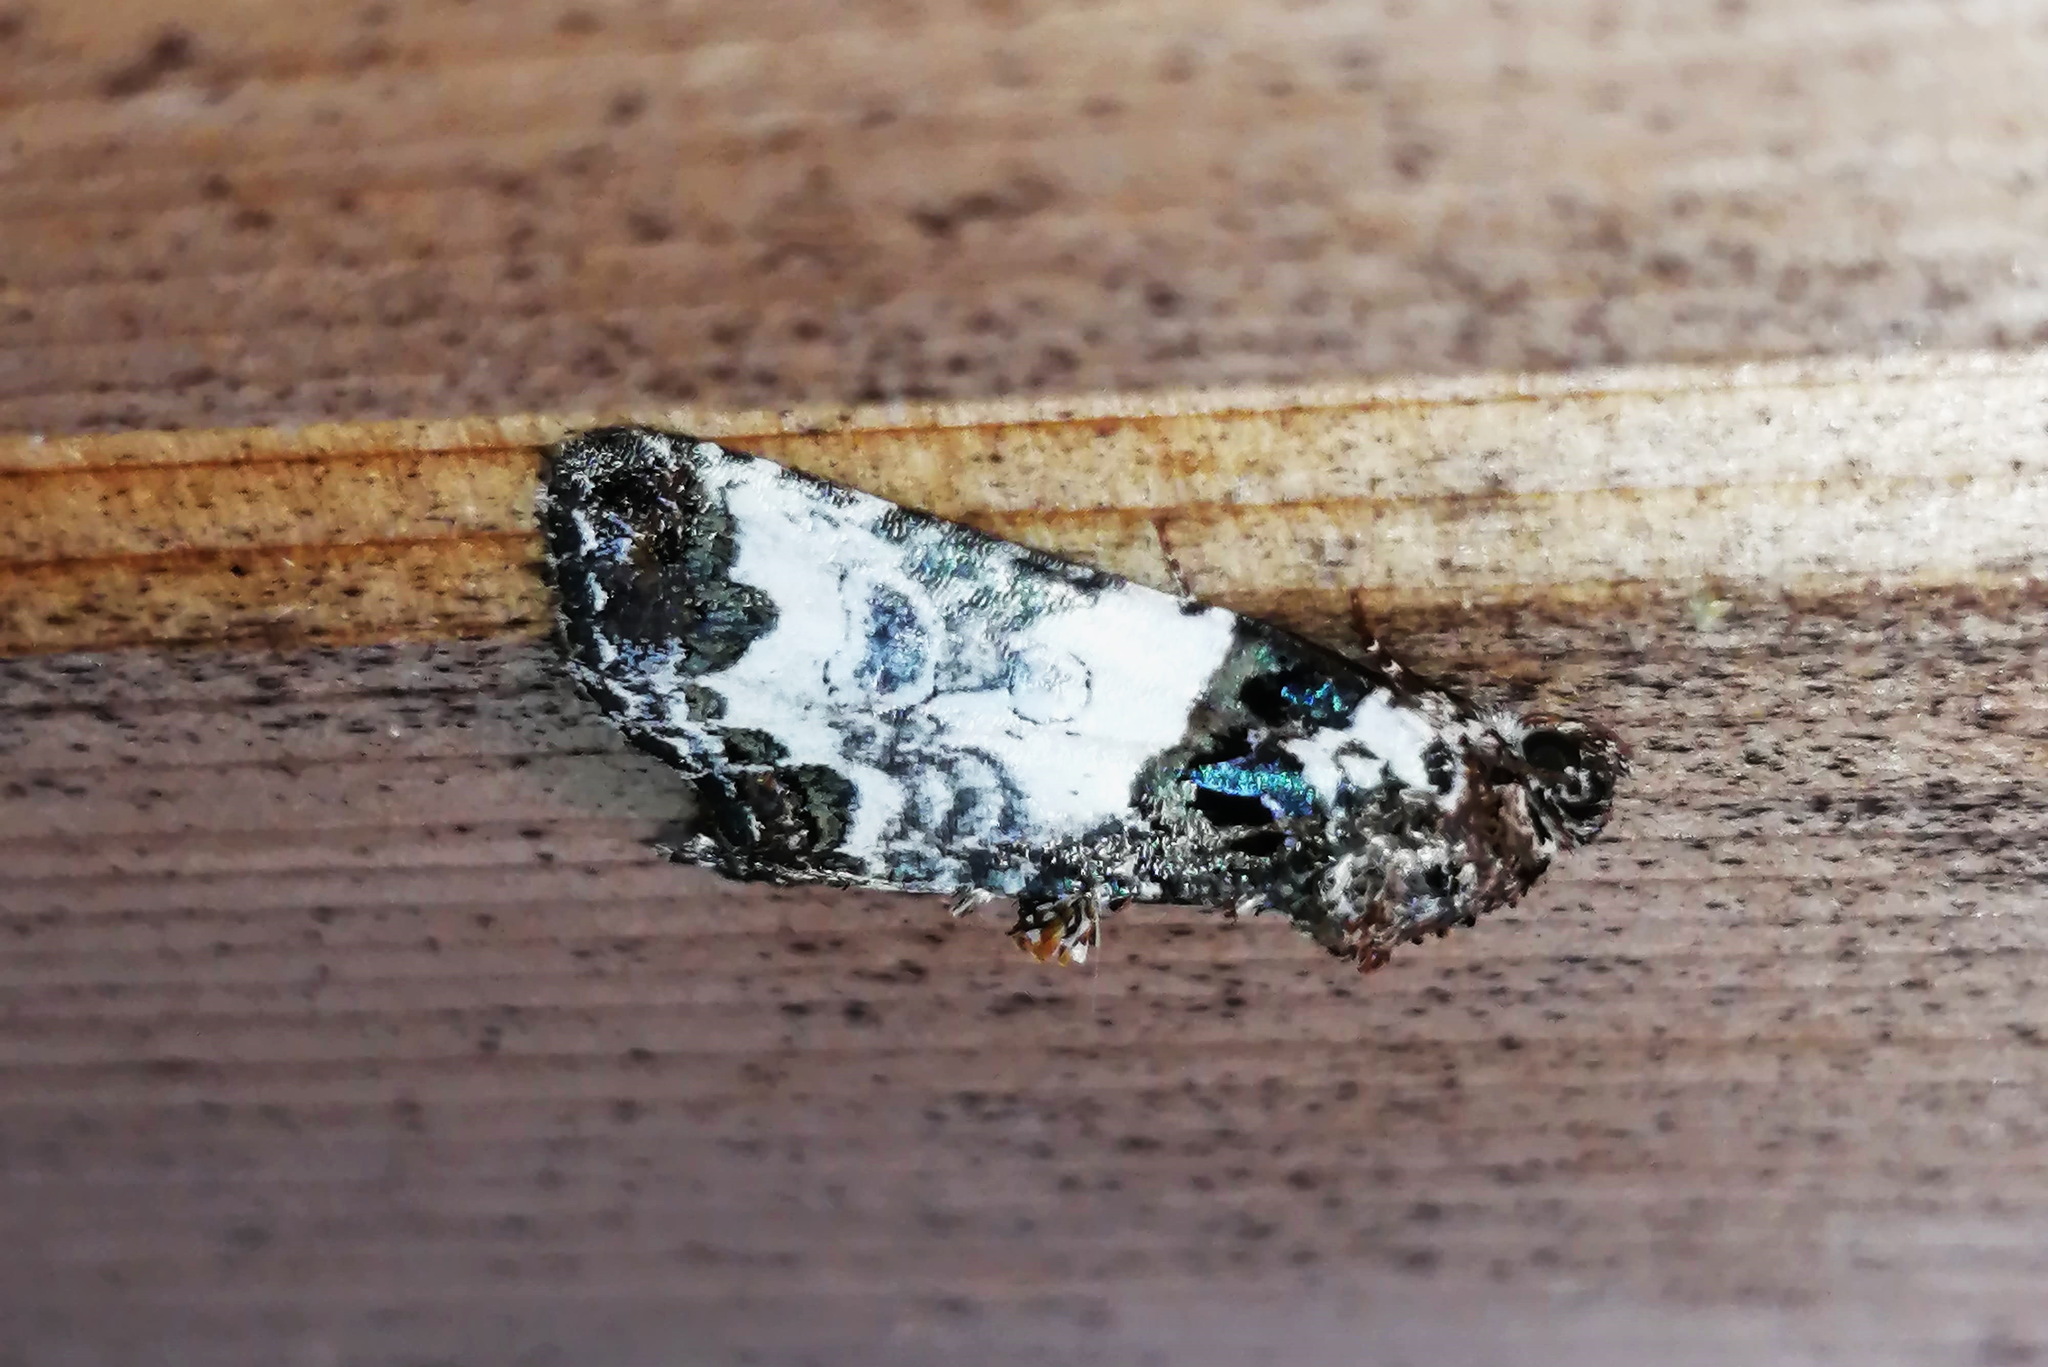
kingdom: Animalia
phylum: Arthropoda
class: Insecta
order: Lepidoptera
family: Noctuidae
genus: Cerma
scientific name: Cerma cerintha
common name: Tufted bird-dropping moth
